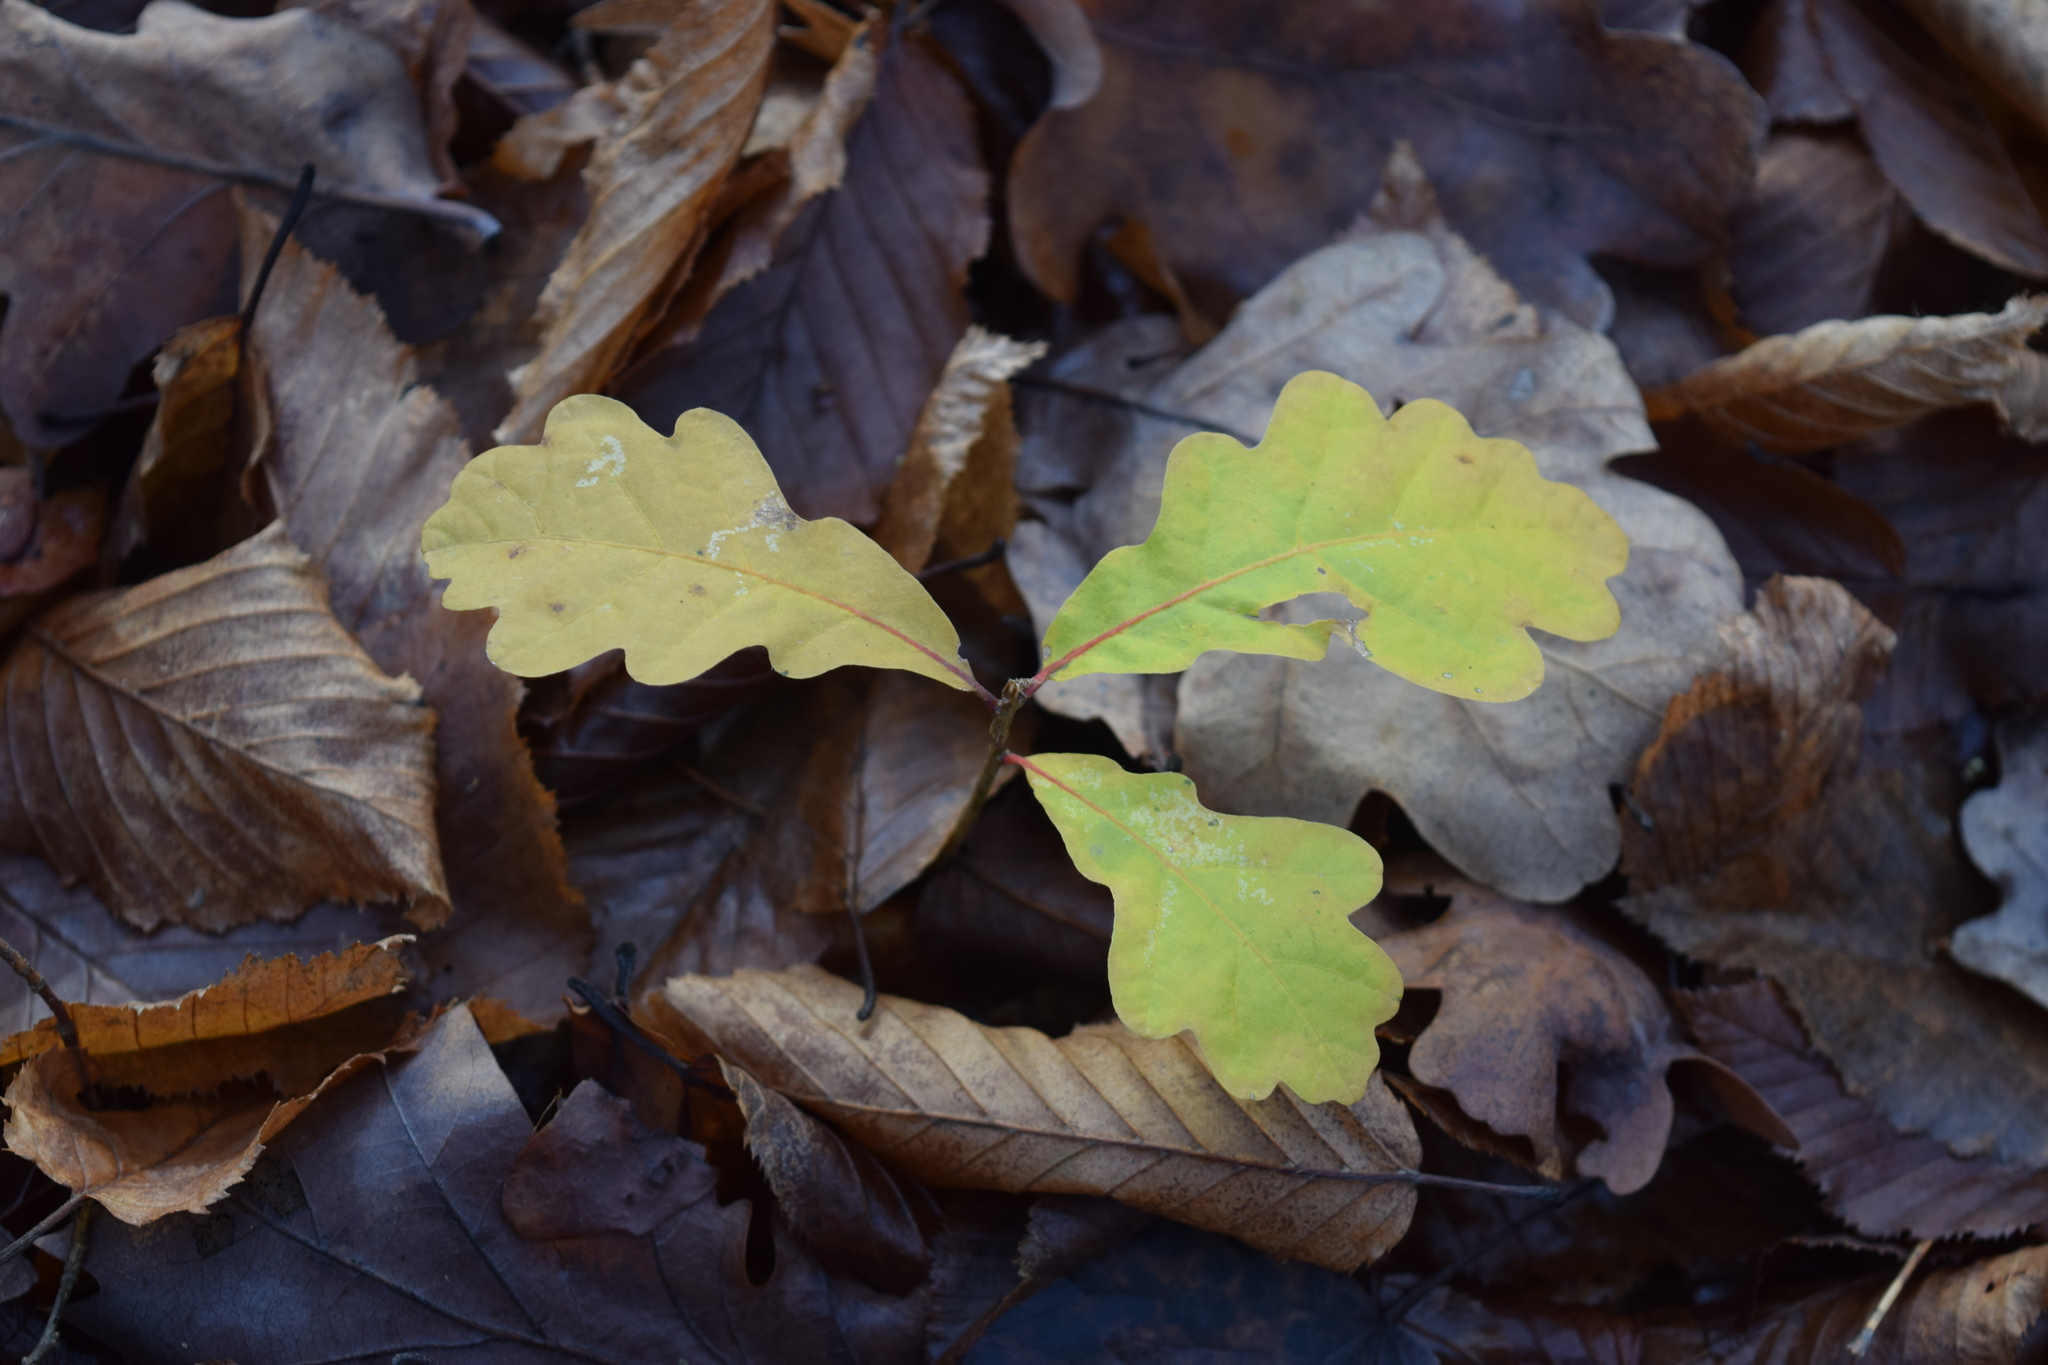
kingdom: Plantae
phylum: Tracheophyta
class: Magnoliopsida
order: Fagales
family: Fagaceae
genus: Quercus
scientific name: Quercus robur
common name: Pedunculate oak
